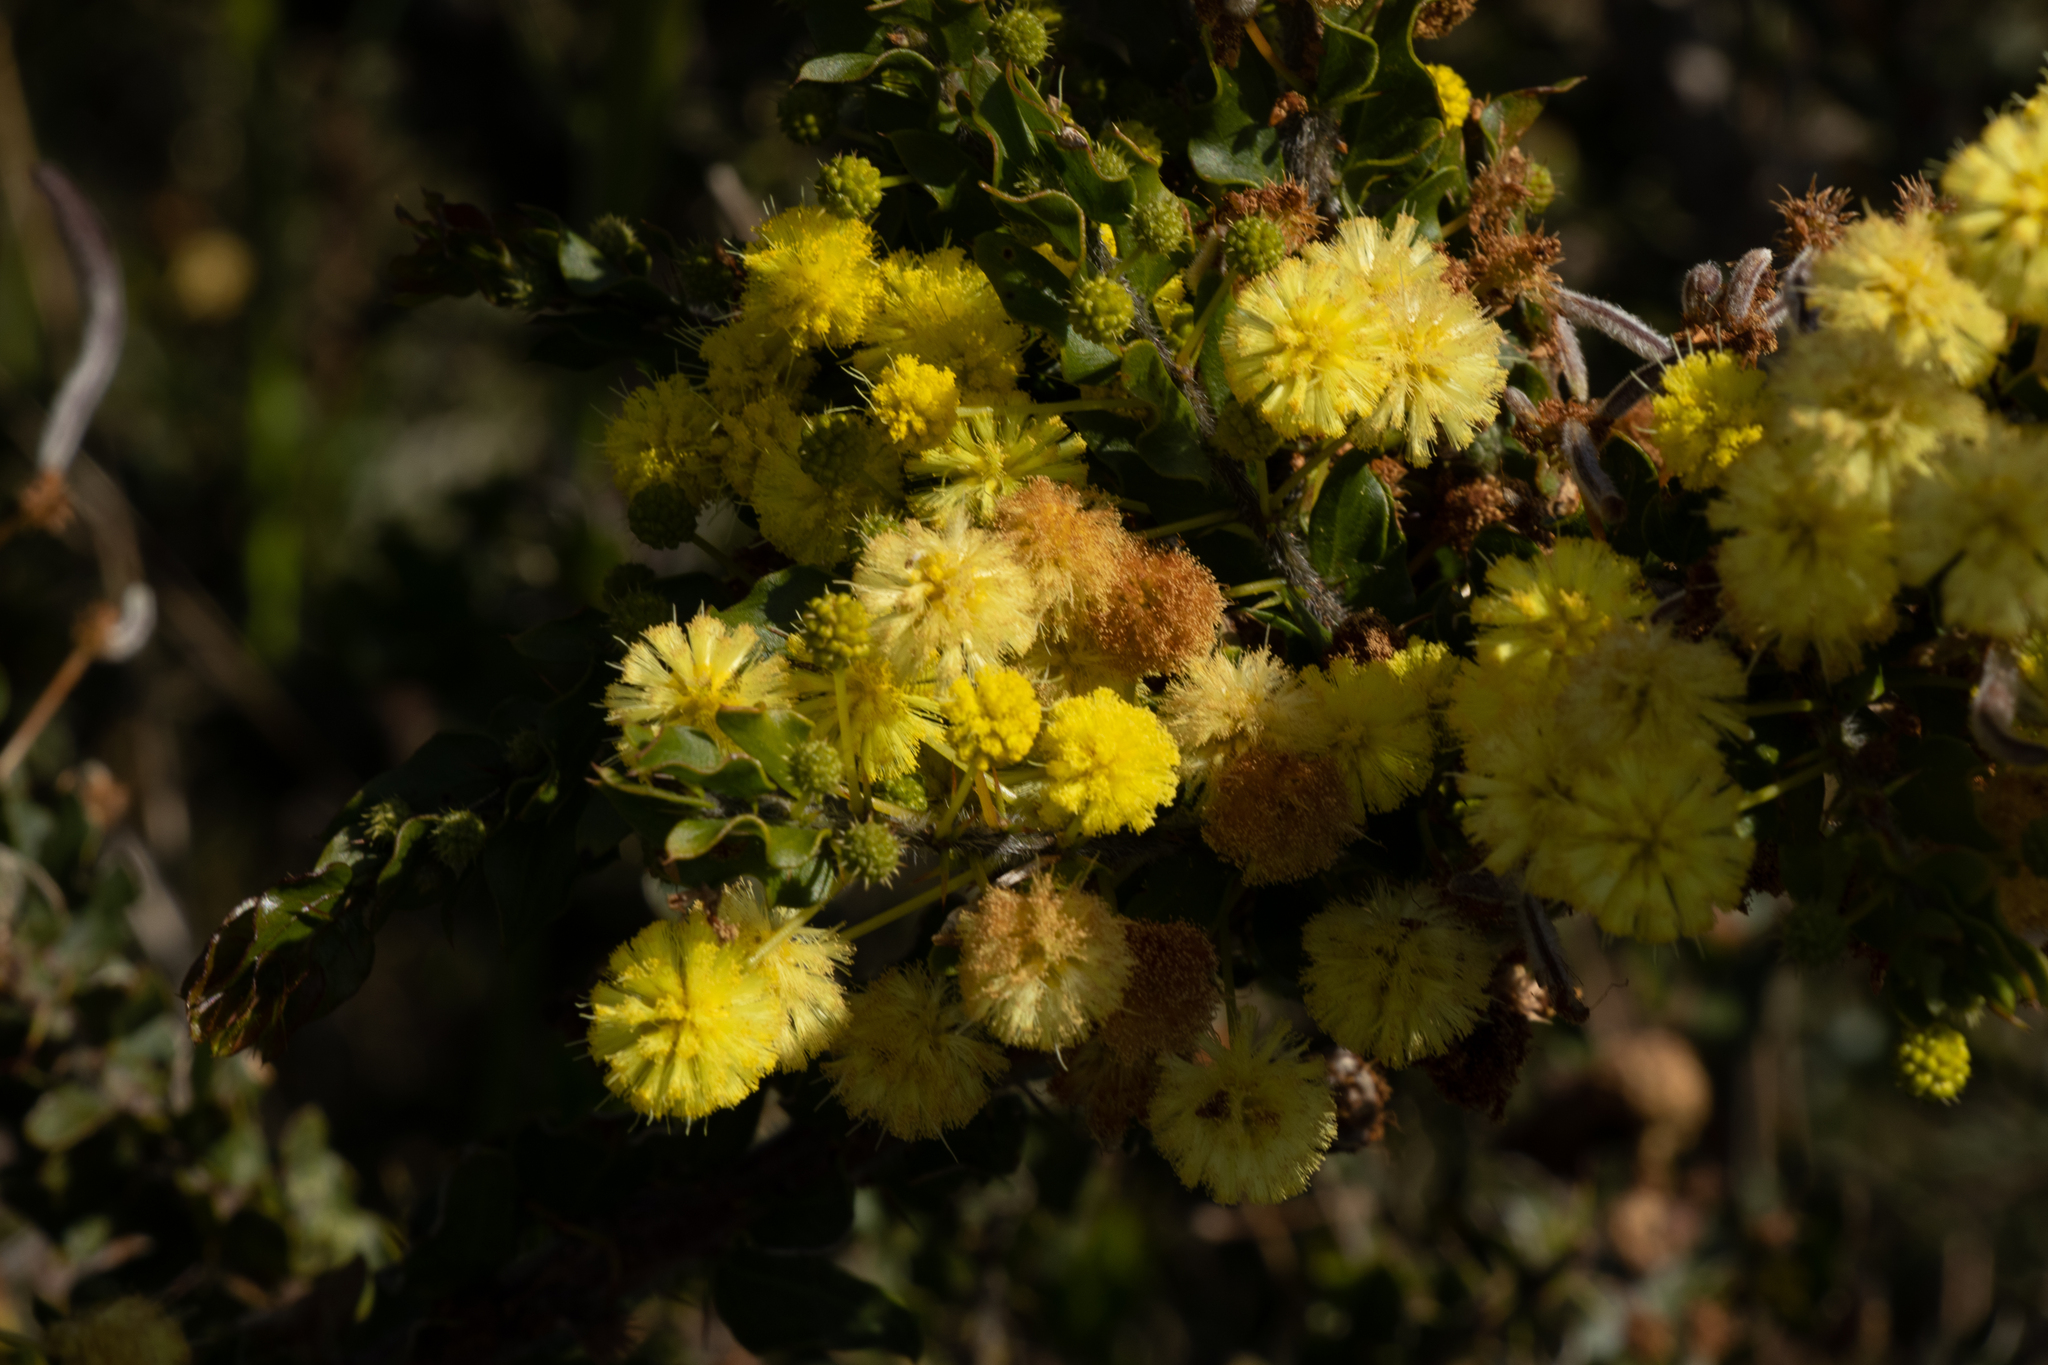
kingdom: Plantae
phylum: Tracheophyta
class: Magnoliopsida
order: Fabales
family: Fabaceae
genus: Acacia
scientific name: Acacia paradoxa
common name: Paradox acacia
